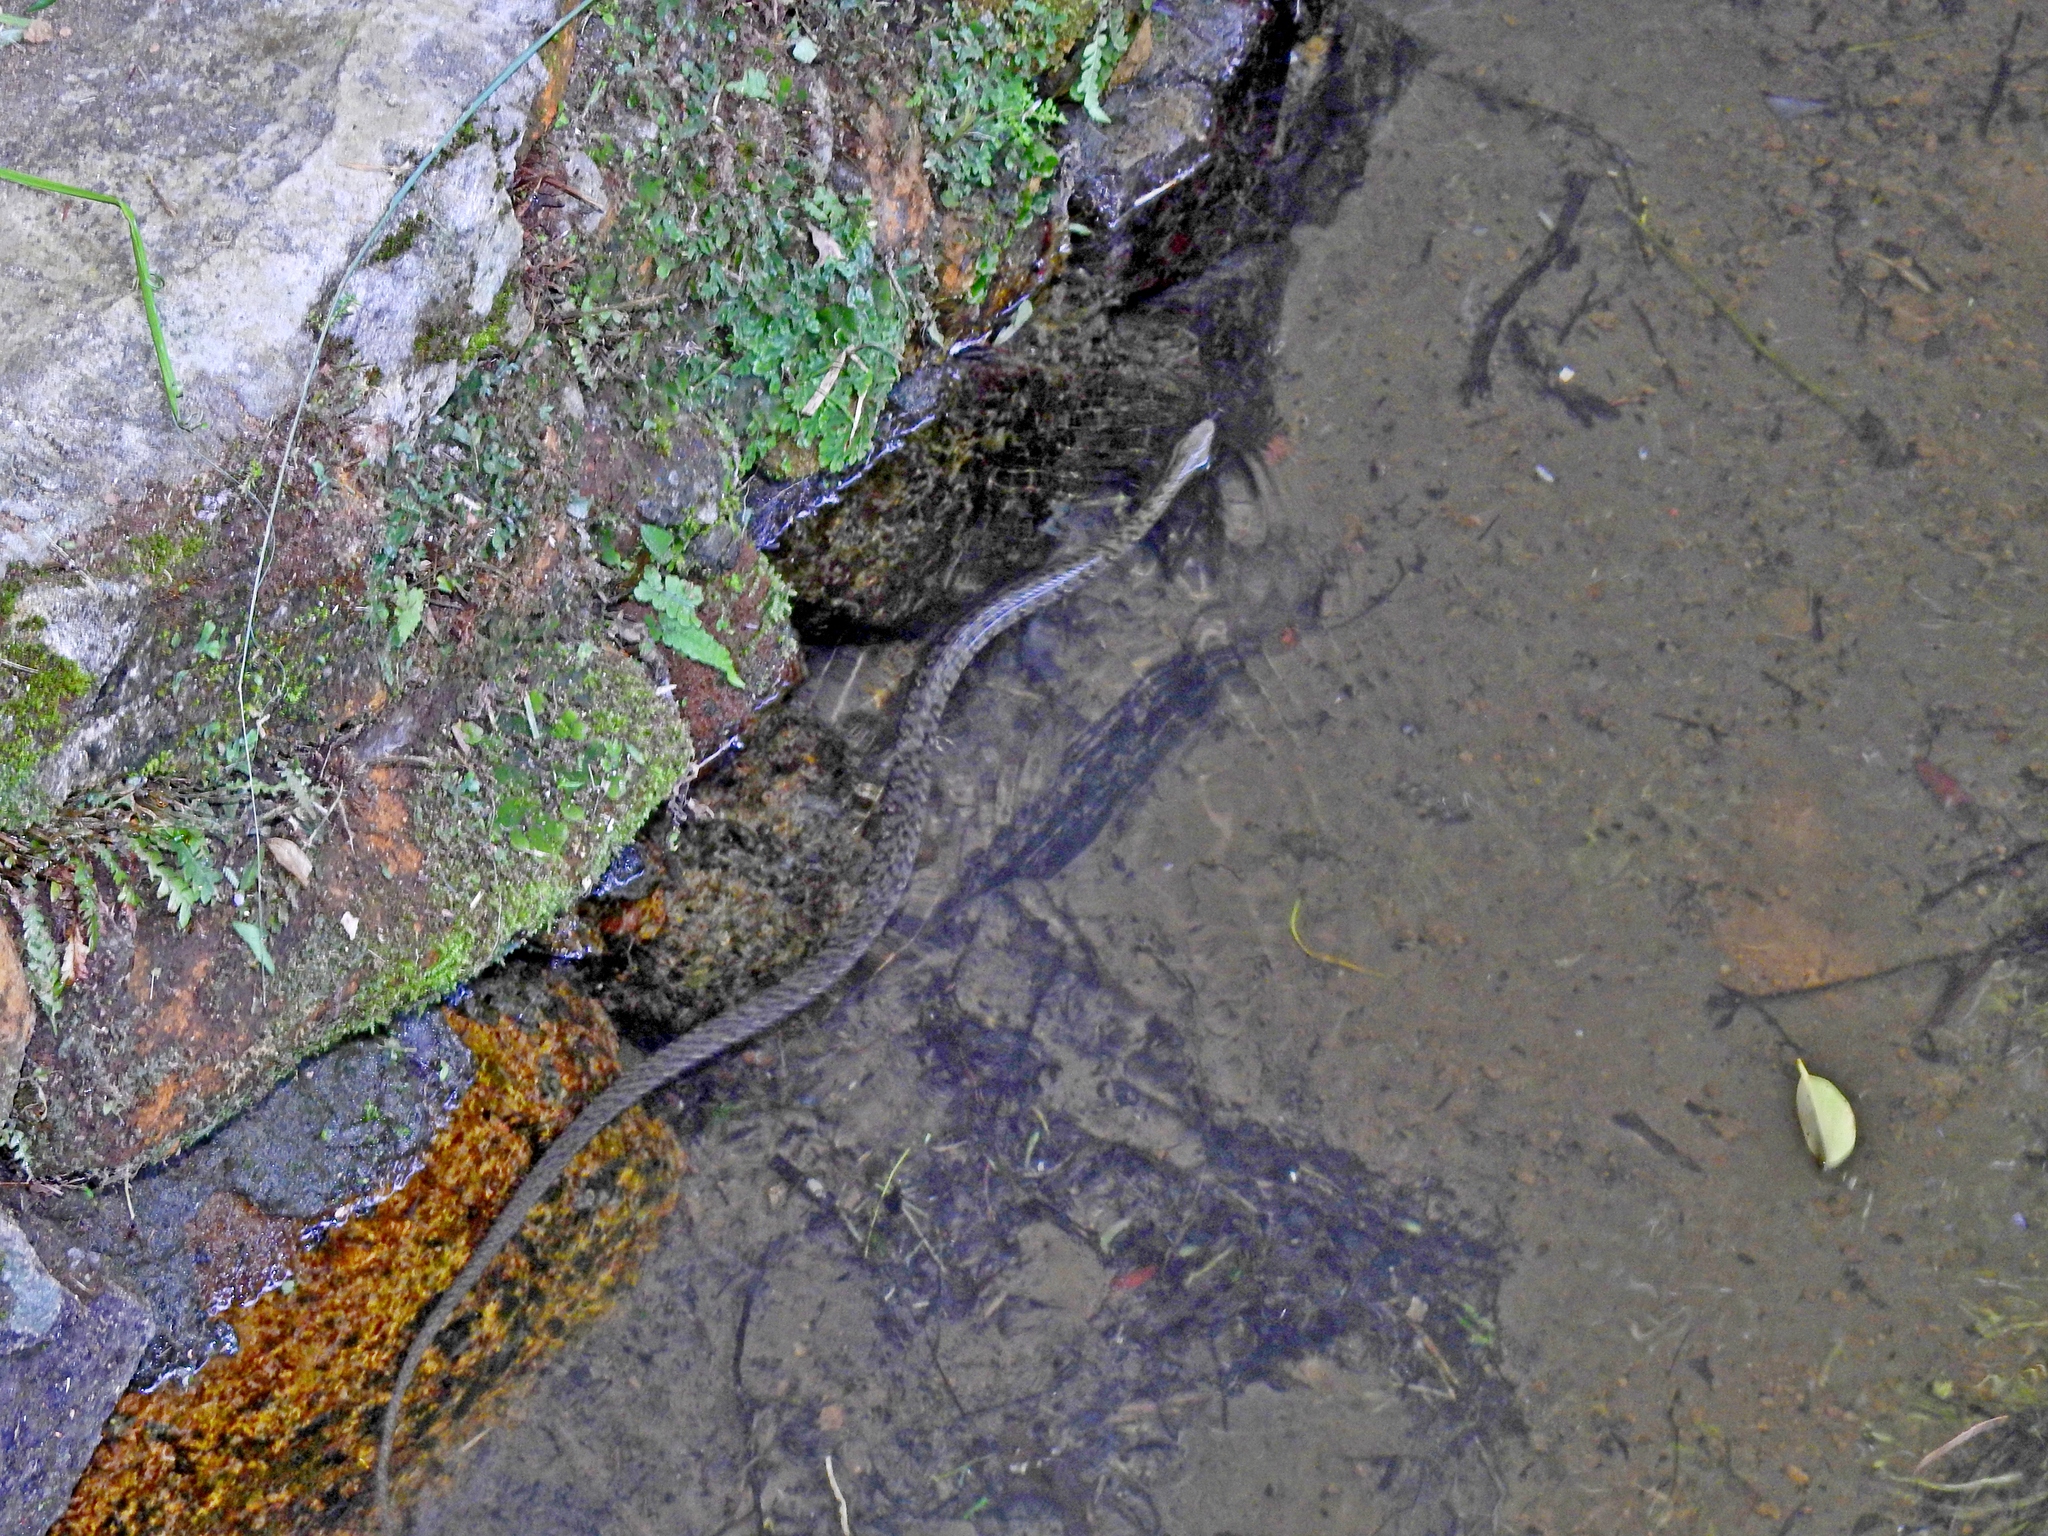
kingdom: Animalia
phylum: Chordata
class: Squamata
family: Colubridae
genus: Trimerodytes
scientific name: Trimerodytes percarinatus
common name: Eastern water snake
